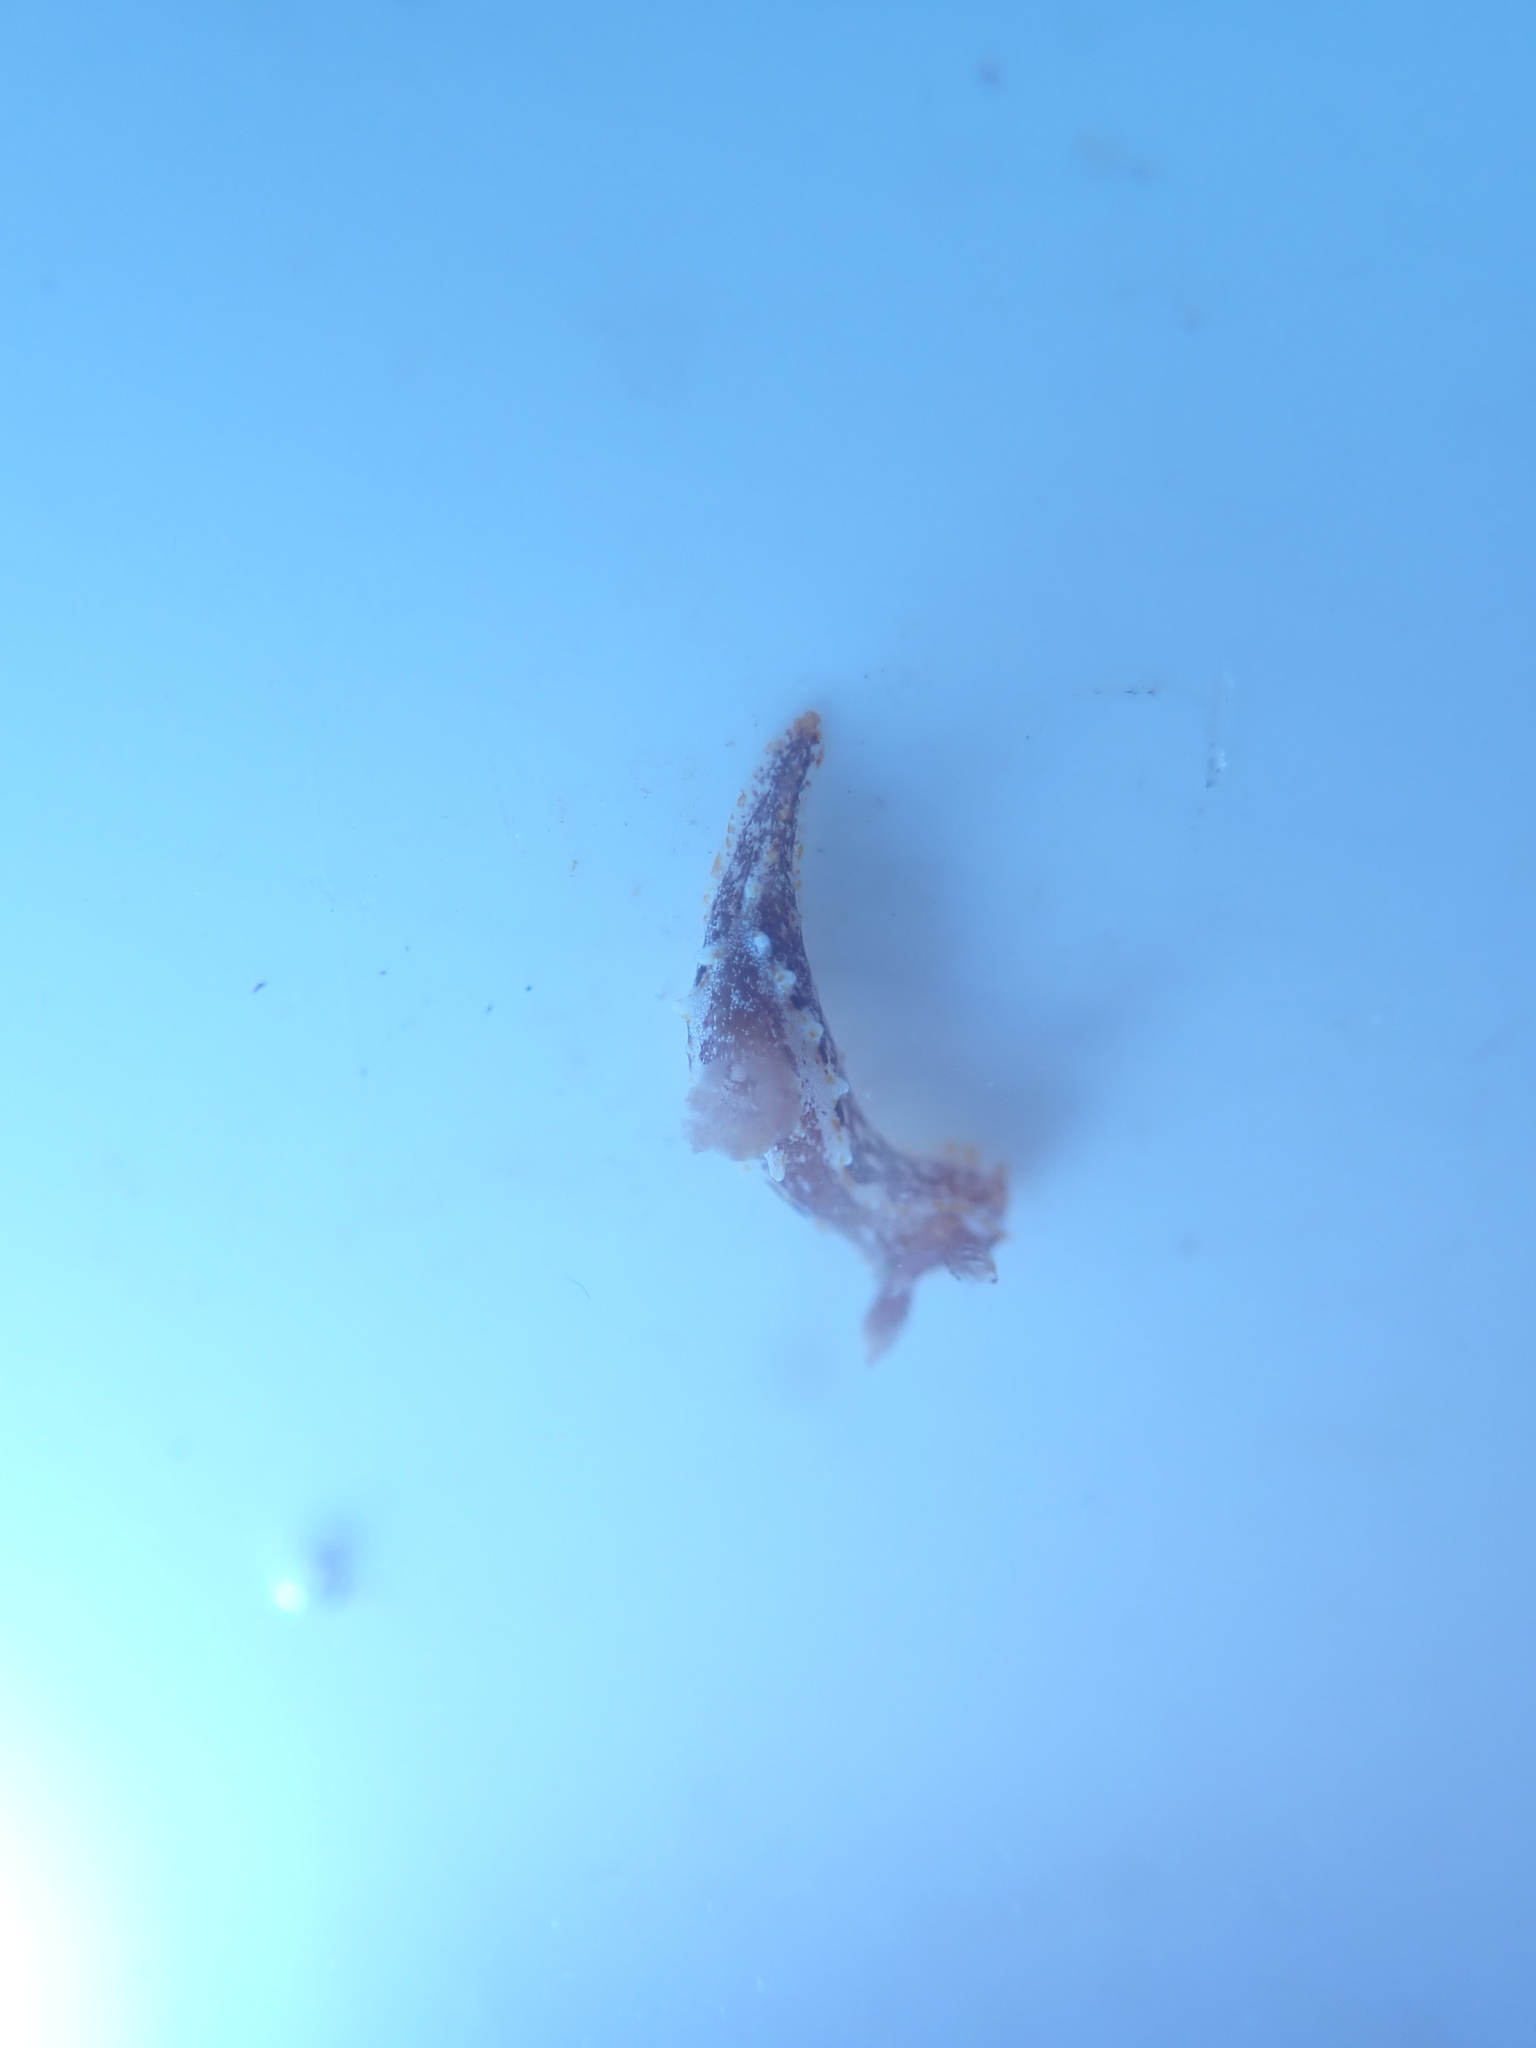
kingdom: Animalia
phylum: Mollusca
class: Gastropoda
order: Nudibranchia
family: Polyceridae
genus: Polycera
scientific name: Polycera parvula
